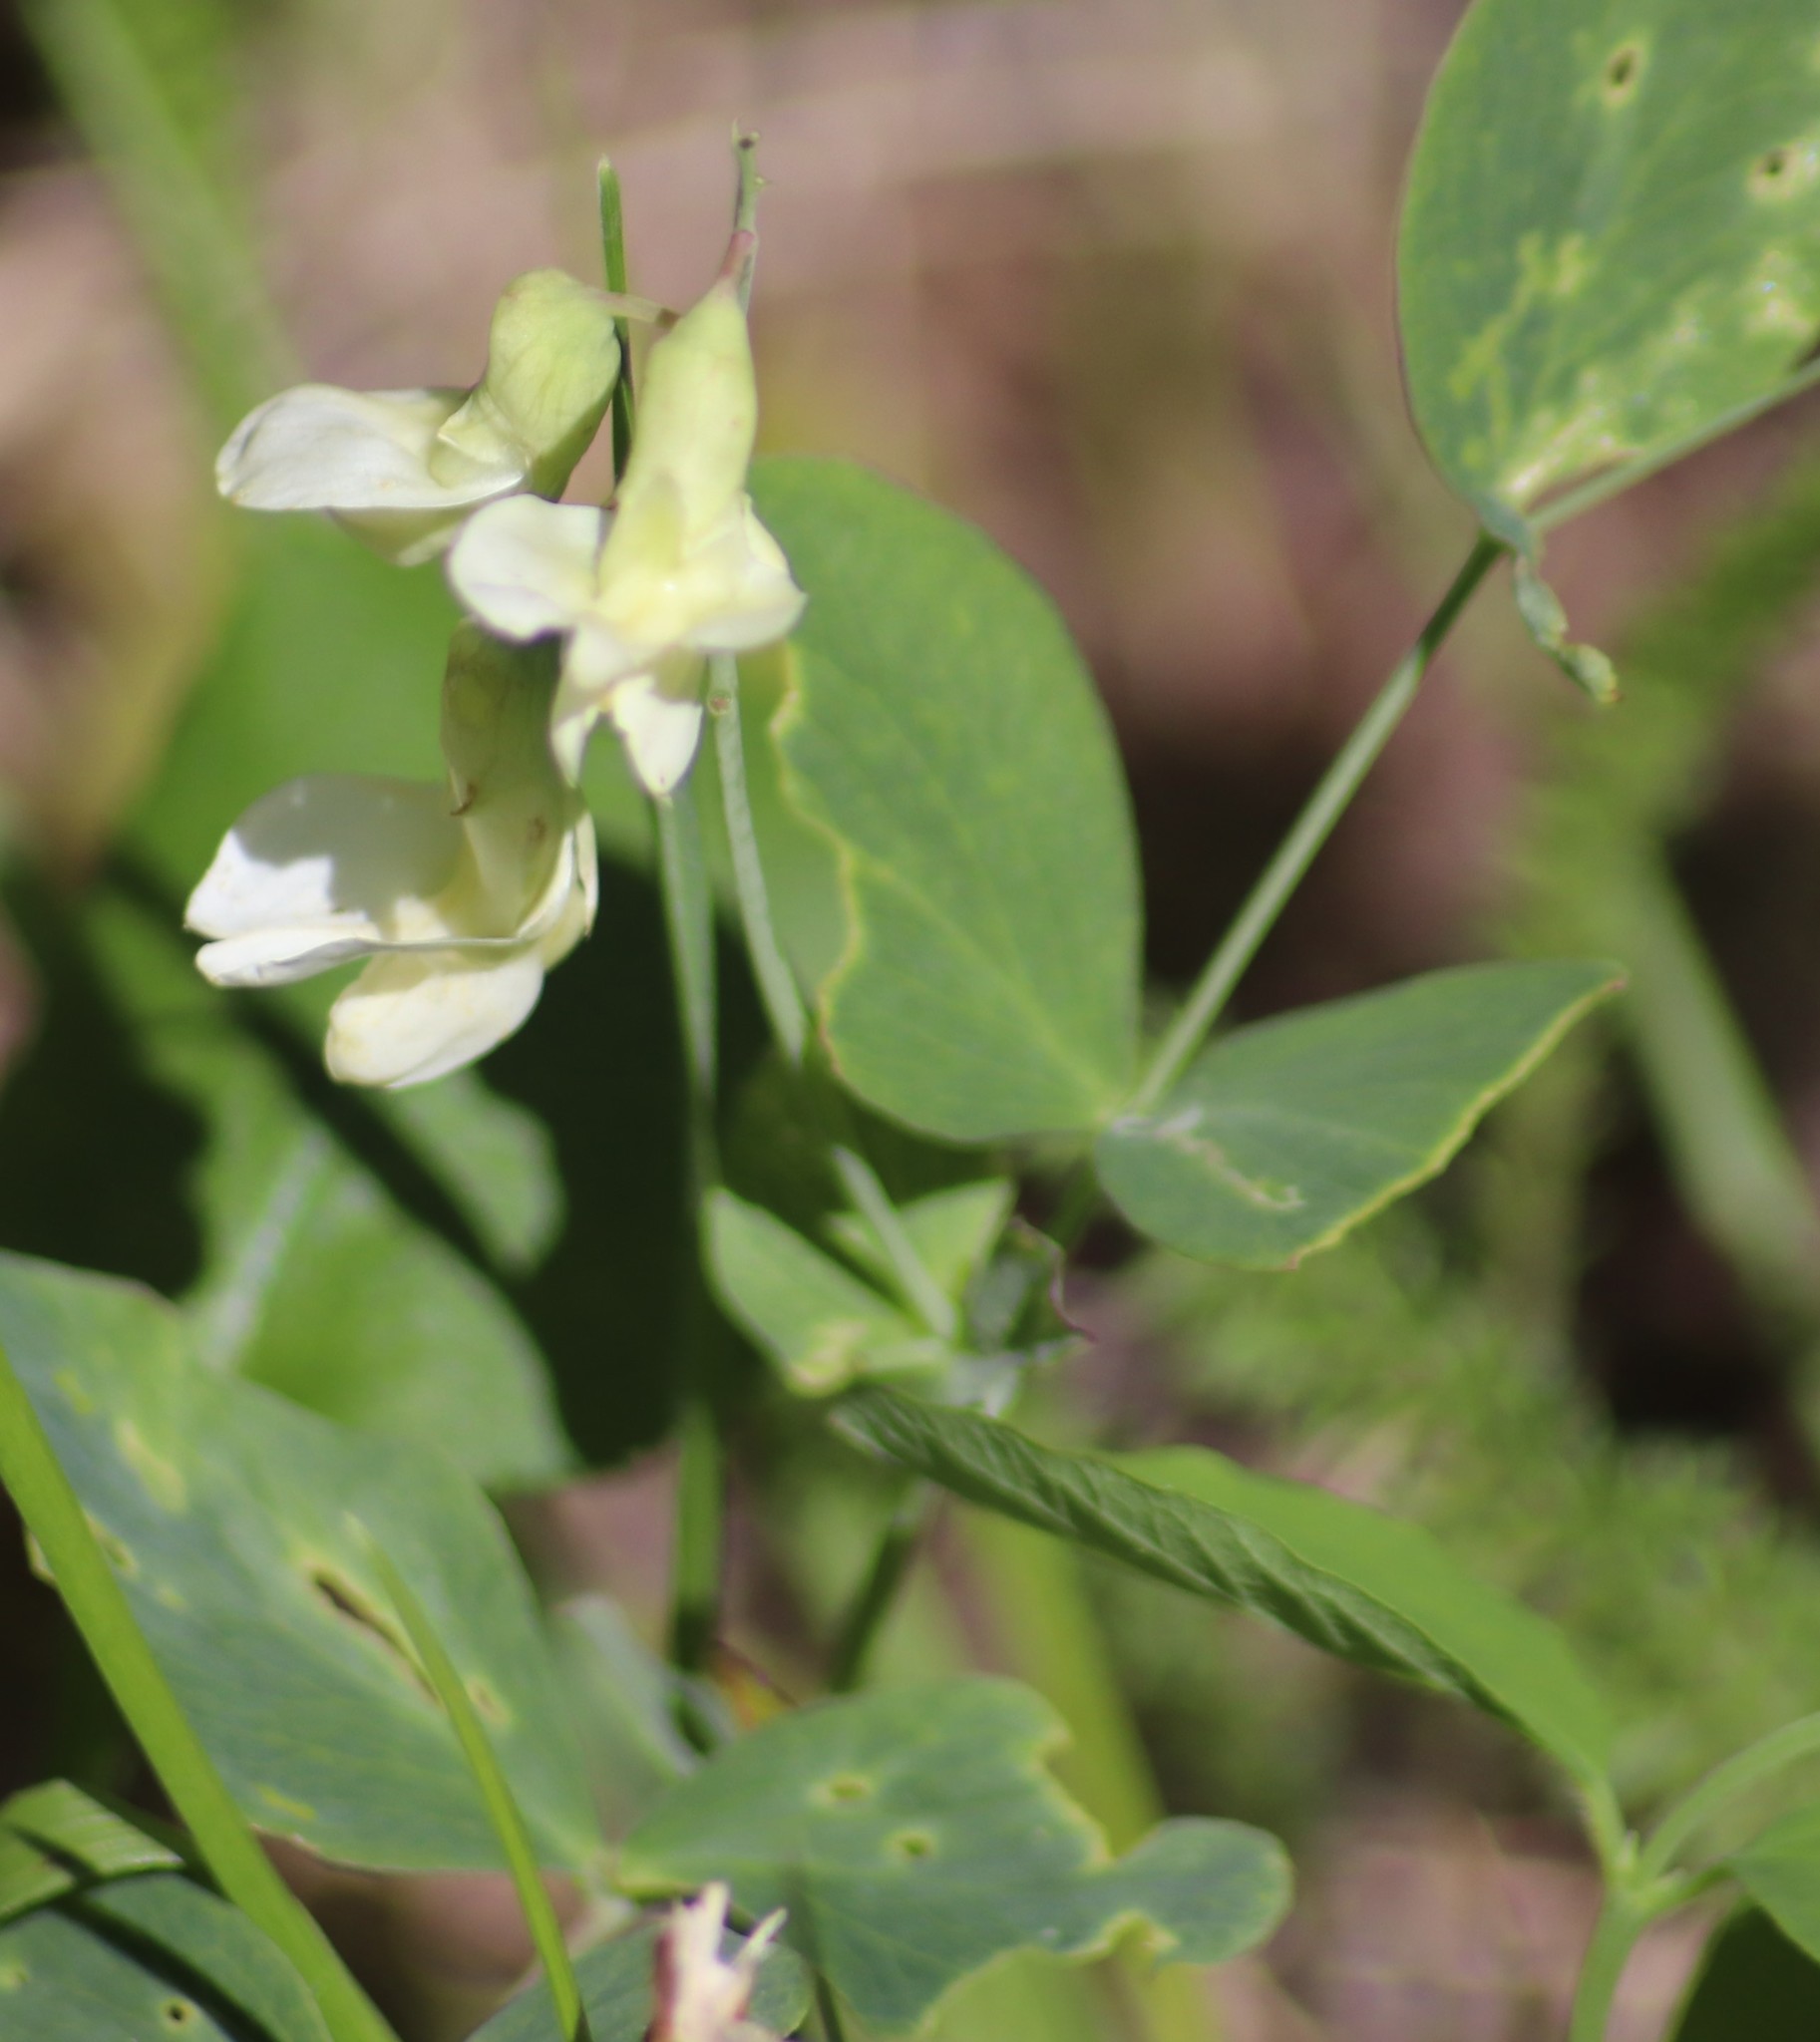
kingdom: Plantae
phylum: Tracheophyta
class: Magnoliopsida
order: Fabales
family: Fabaceae
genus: Lathyrus
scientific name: Lathyrus ochroleucus
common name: Pale vetchling
